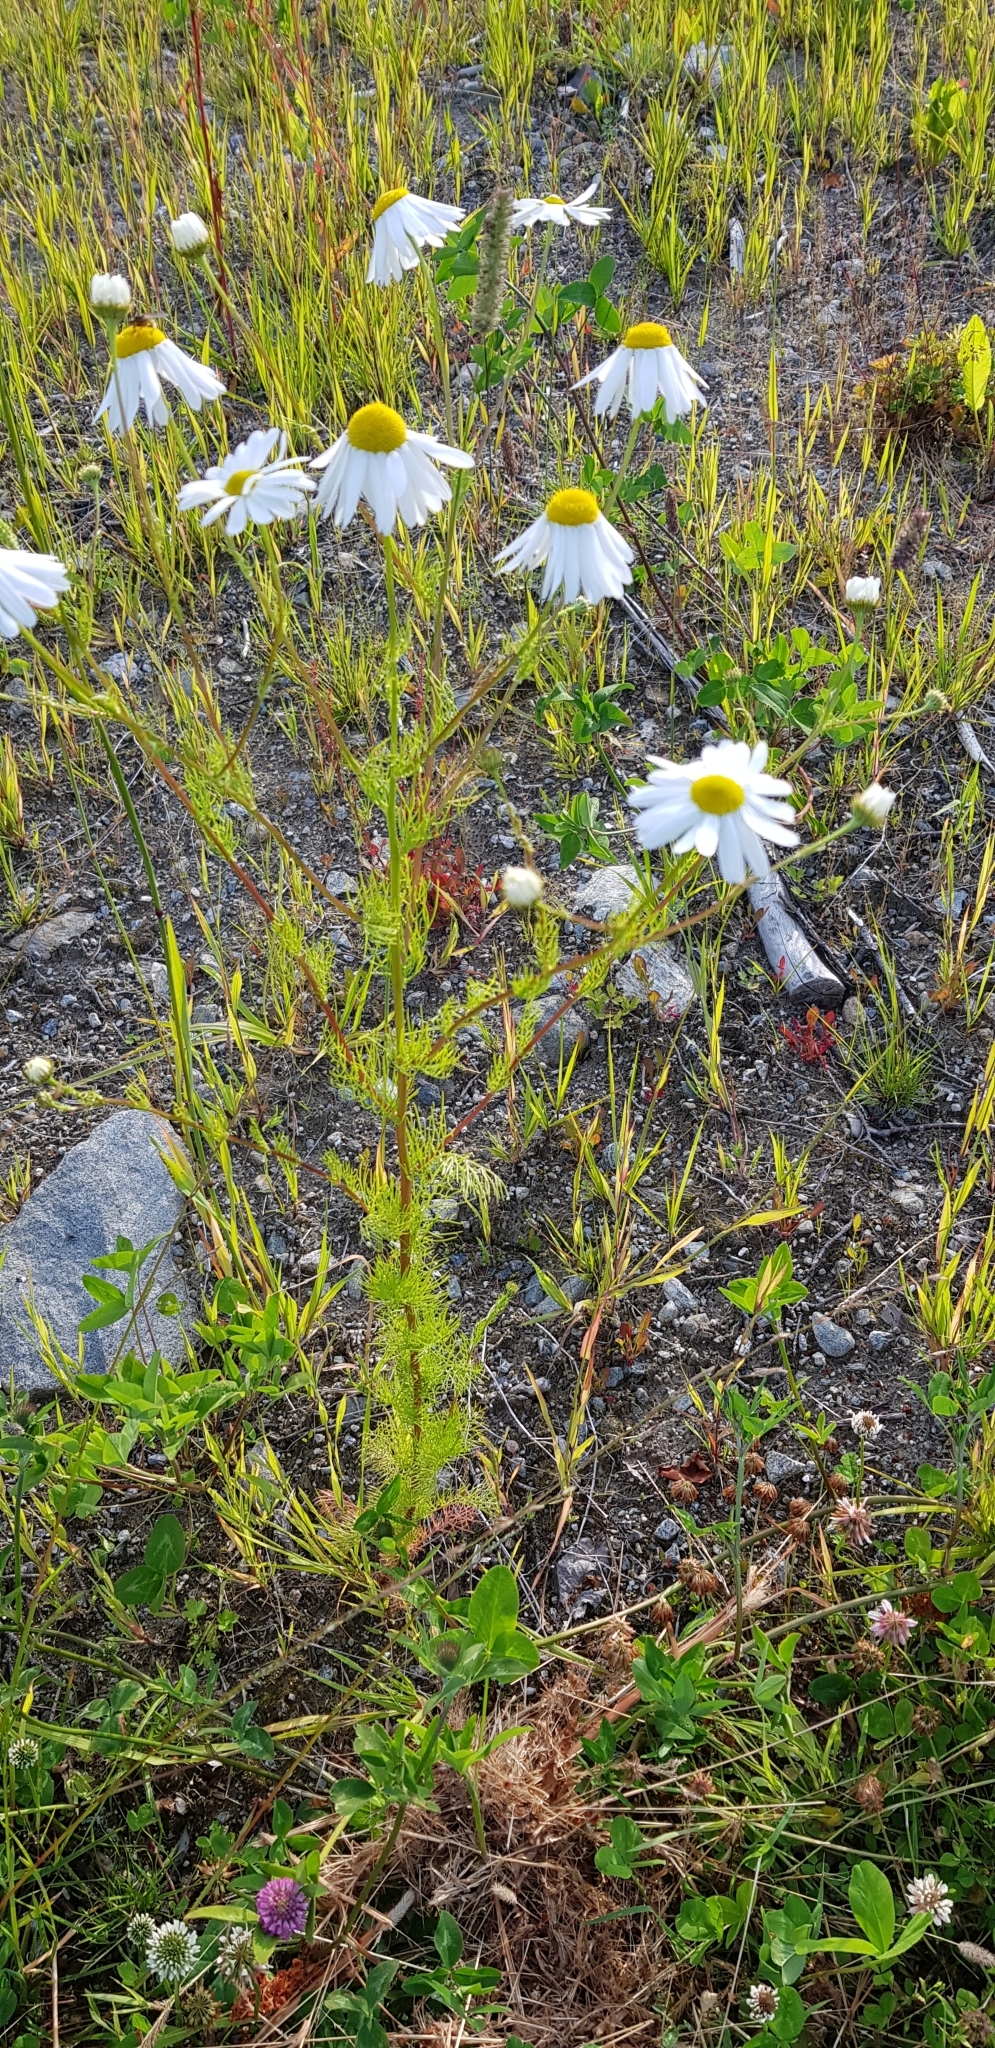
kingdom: Plantae
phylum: Tracheophyta
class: Magnoliopsida
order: Asterales
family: Asteraceae
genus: Tripleurospermum
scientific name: Tripleurospermum inodorum
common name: Scentless mayweed
